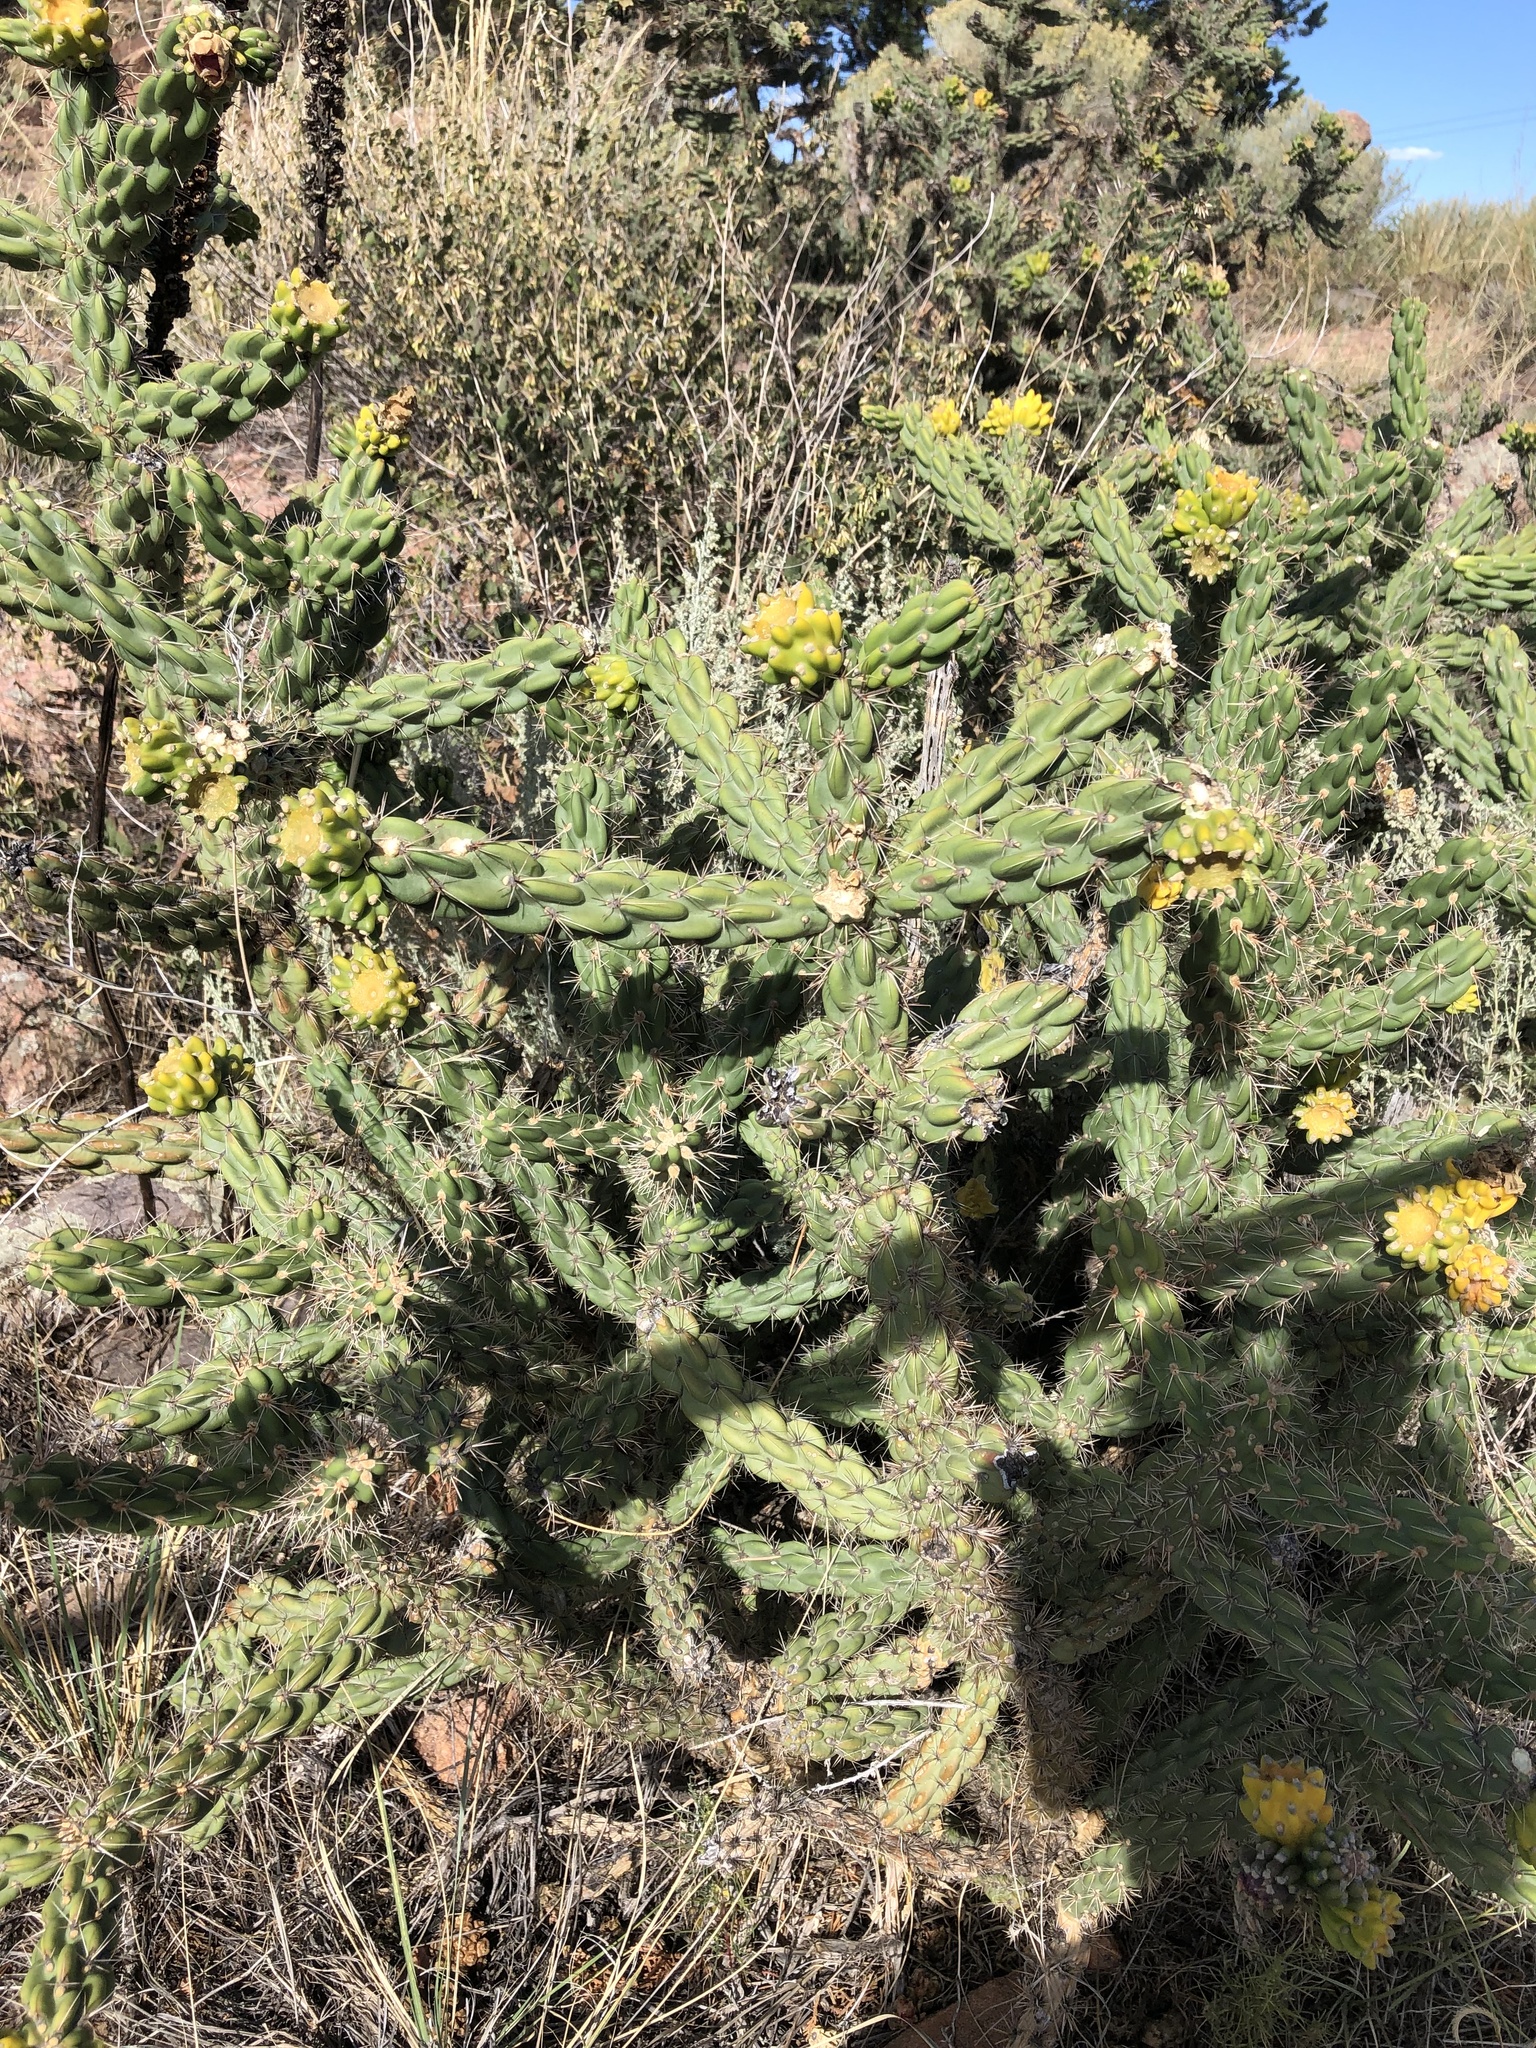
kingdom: Plantae
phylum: Tracheophyta
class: Magnoliopsida
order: Caryophyllales
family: Cactaceae
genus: Cylindropuntia
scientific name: Cylindropuntia imbricata
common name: Candelabrum cactus
